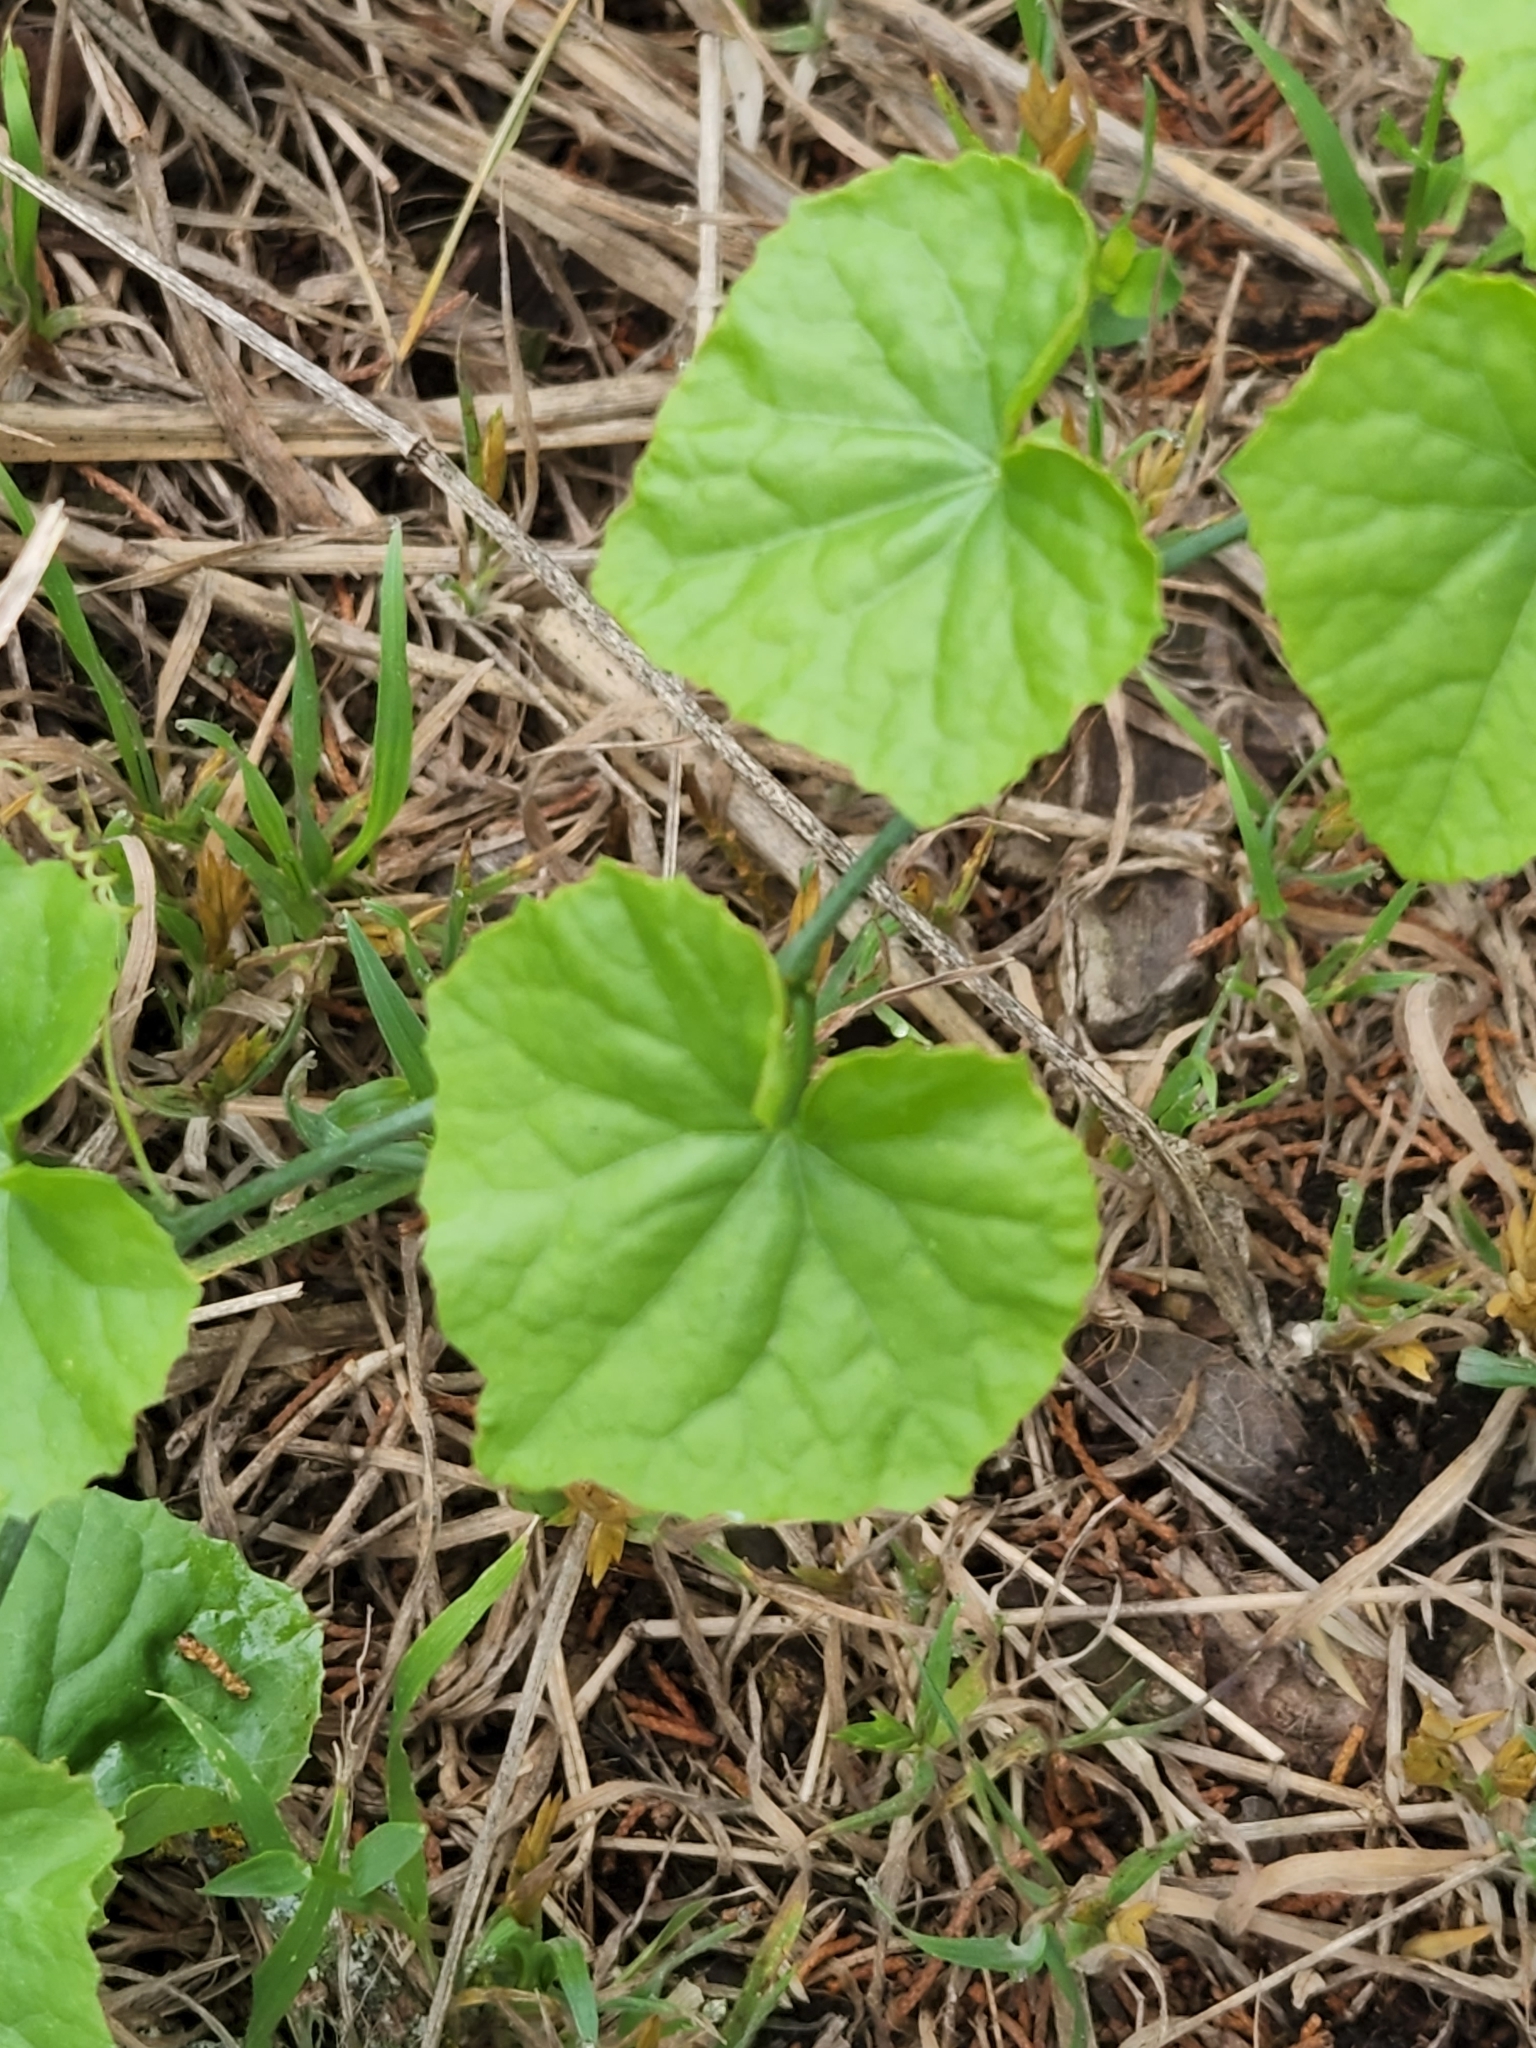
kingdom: Plantae
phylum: Tracheophyta
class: Magnoliopsida
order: Cucurbitales
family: Cucurbitaceae
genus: Melothria
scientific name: Melothria pendula
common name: Creeping-cucumber
